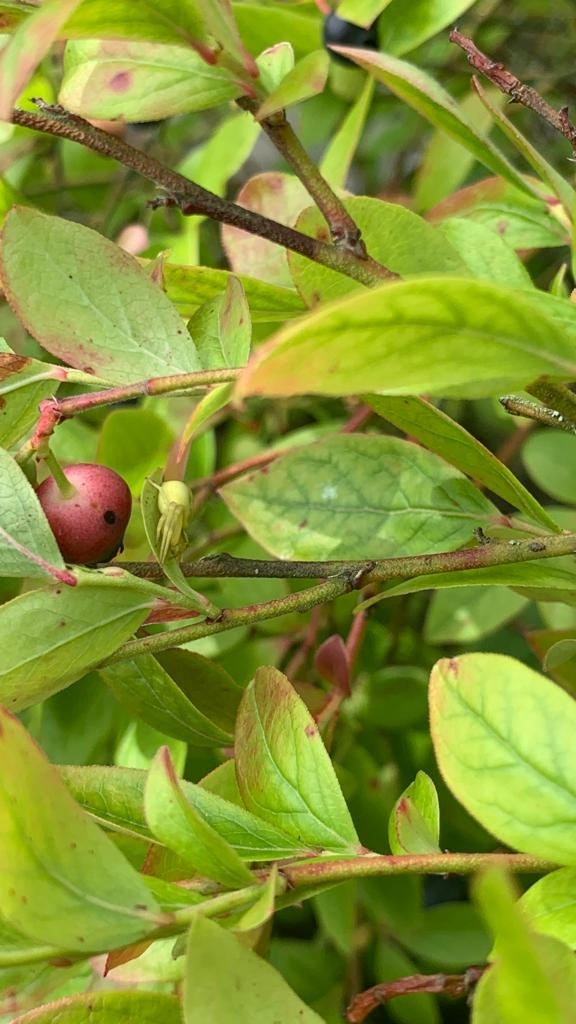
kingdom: Animalia
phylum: Arthropoda
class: Arachnida
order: Araneae
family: Thomisidae
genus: Misumena
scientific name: Misumena vatia
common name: Goldenrod crab spider
